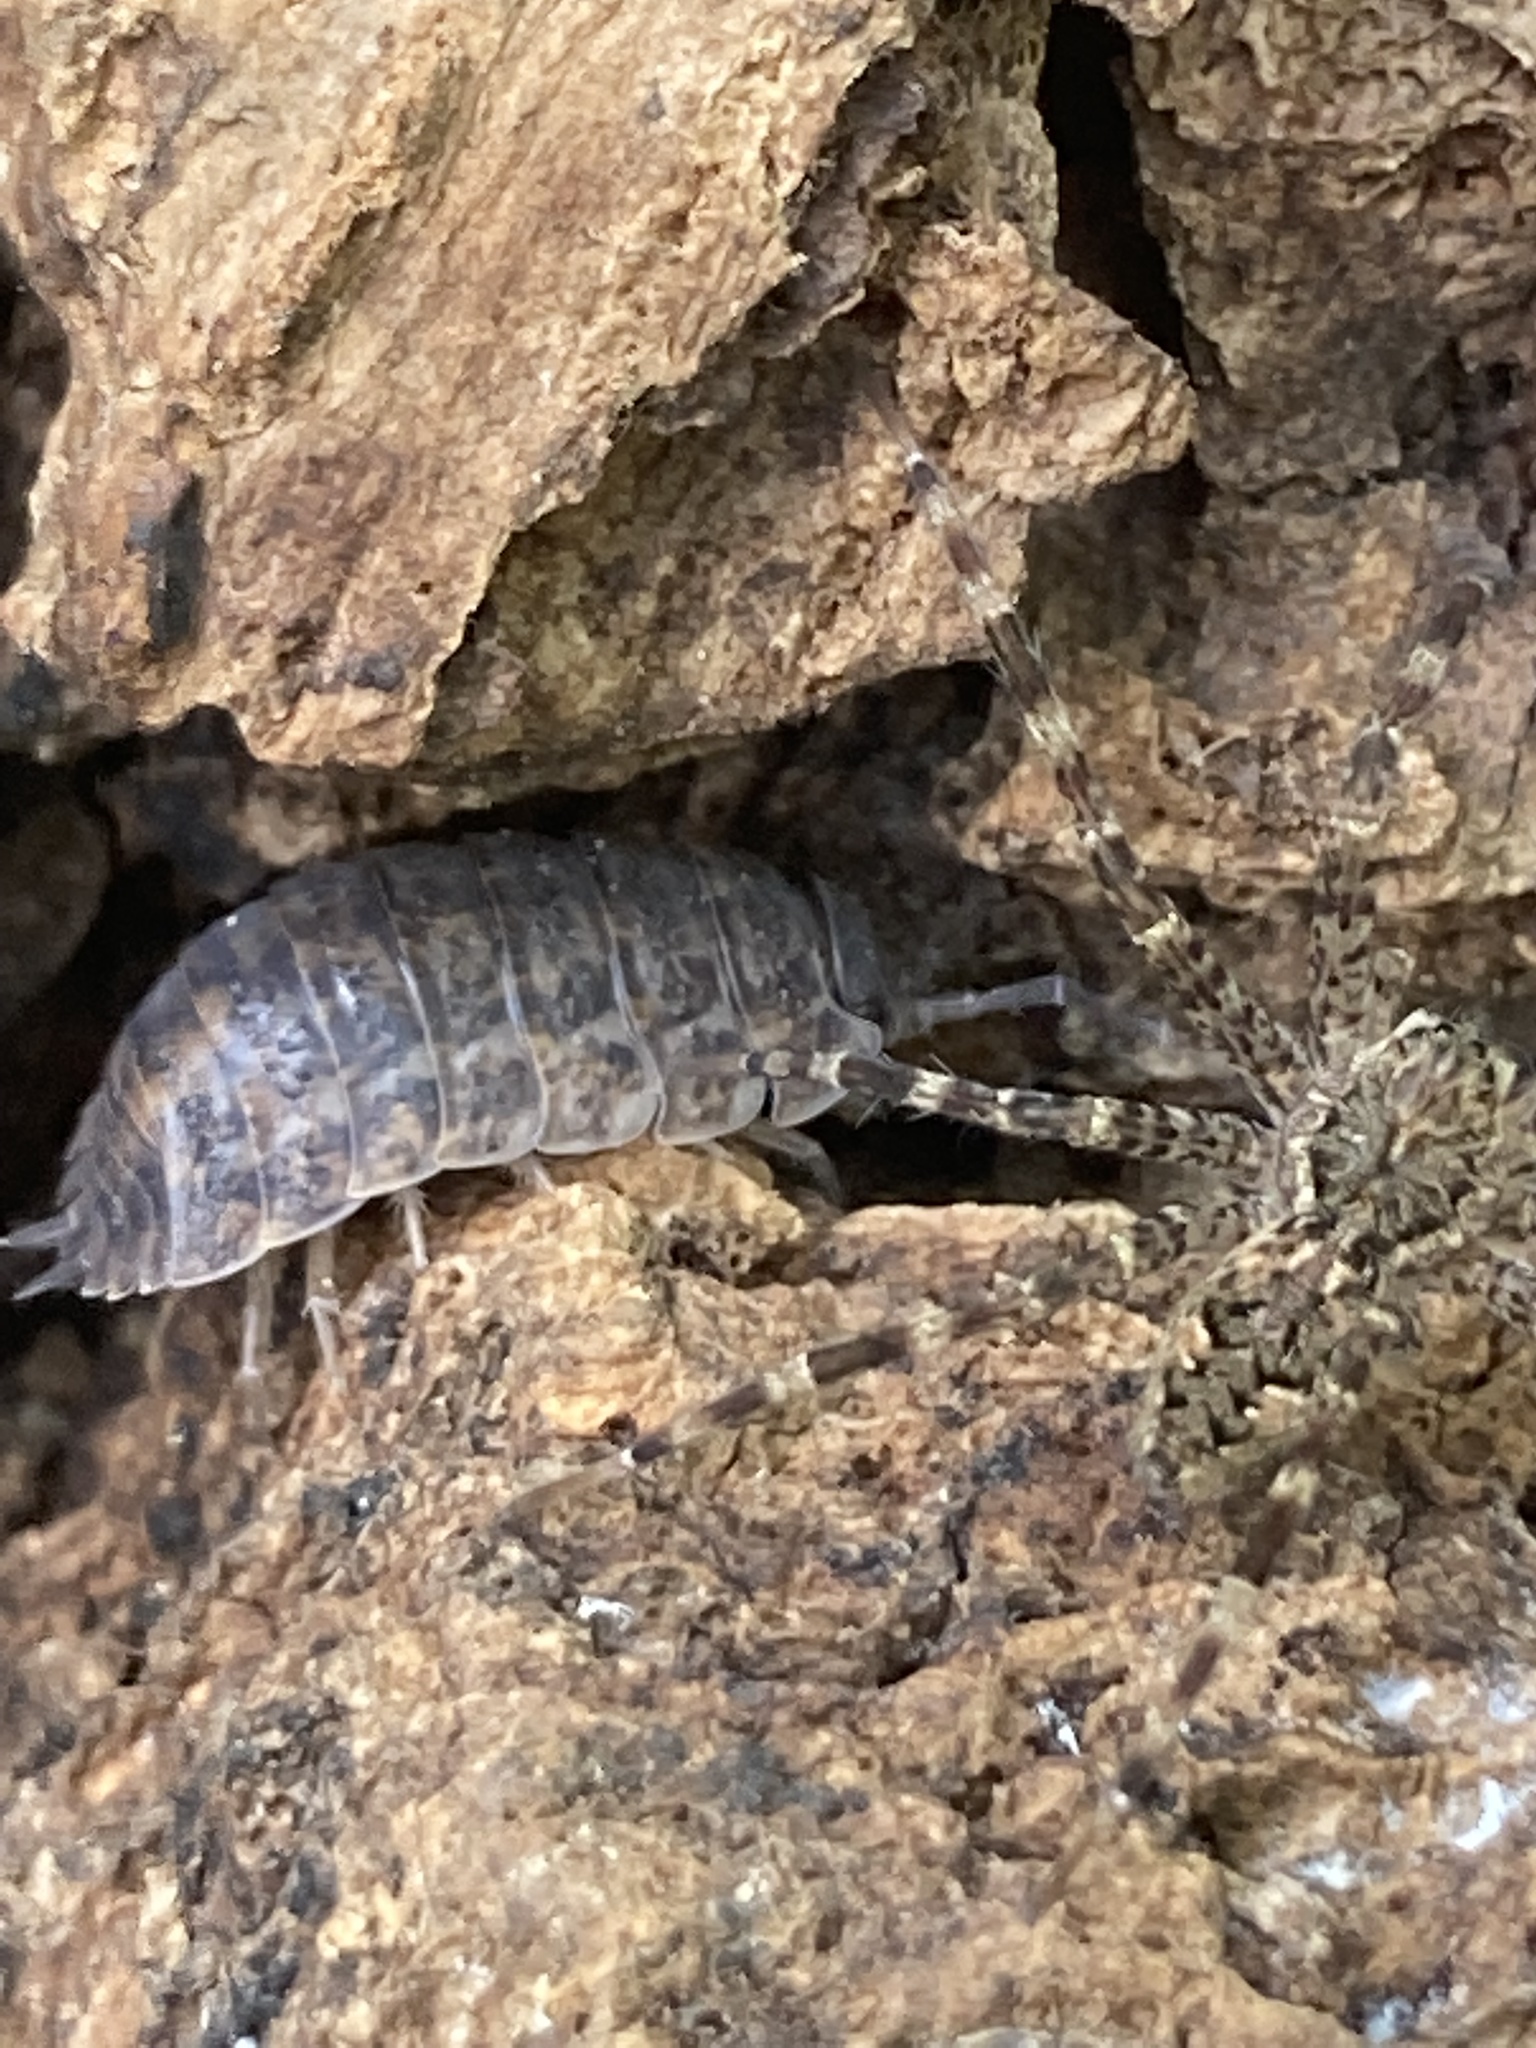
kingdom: Animalia
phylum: Arthropoda
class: Malacostraca
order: Isopoda
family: Trachelipodidae
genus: Trachelipus
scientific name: Trachelipus rathkii
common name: Isopod
